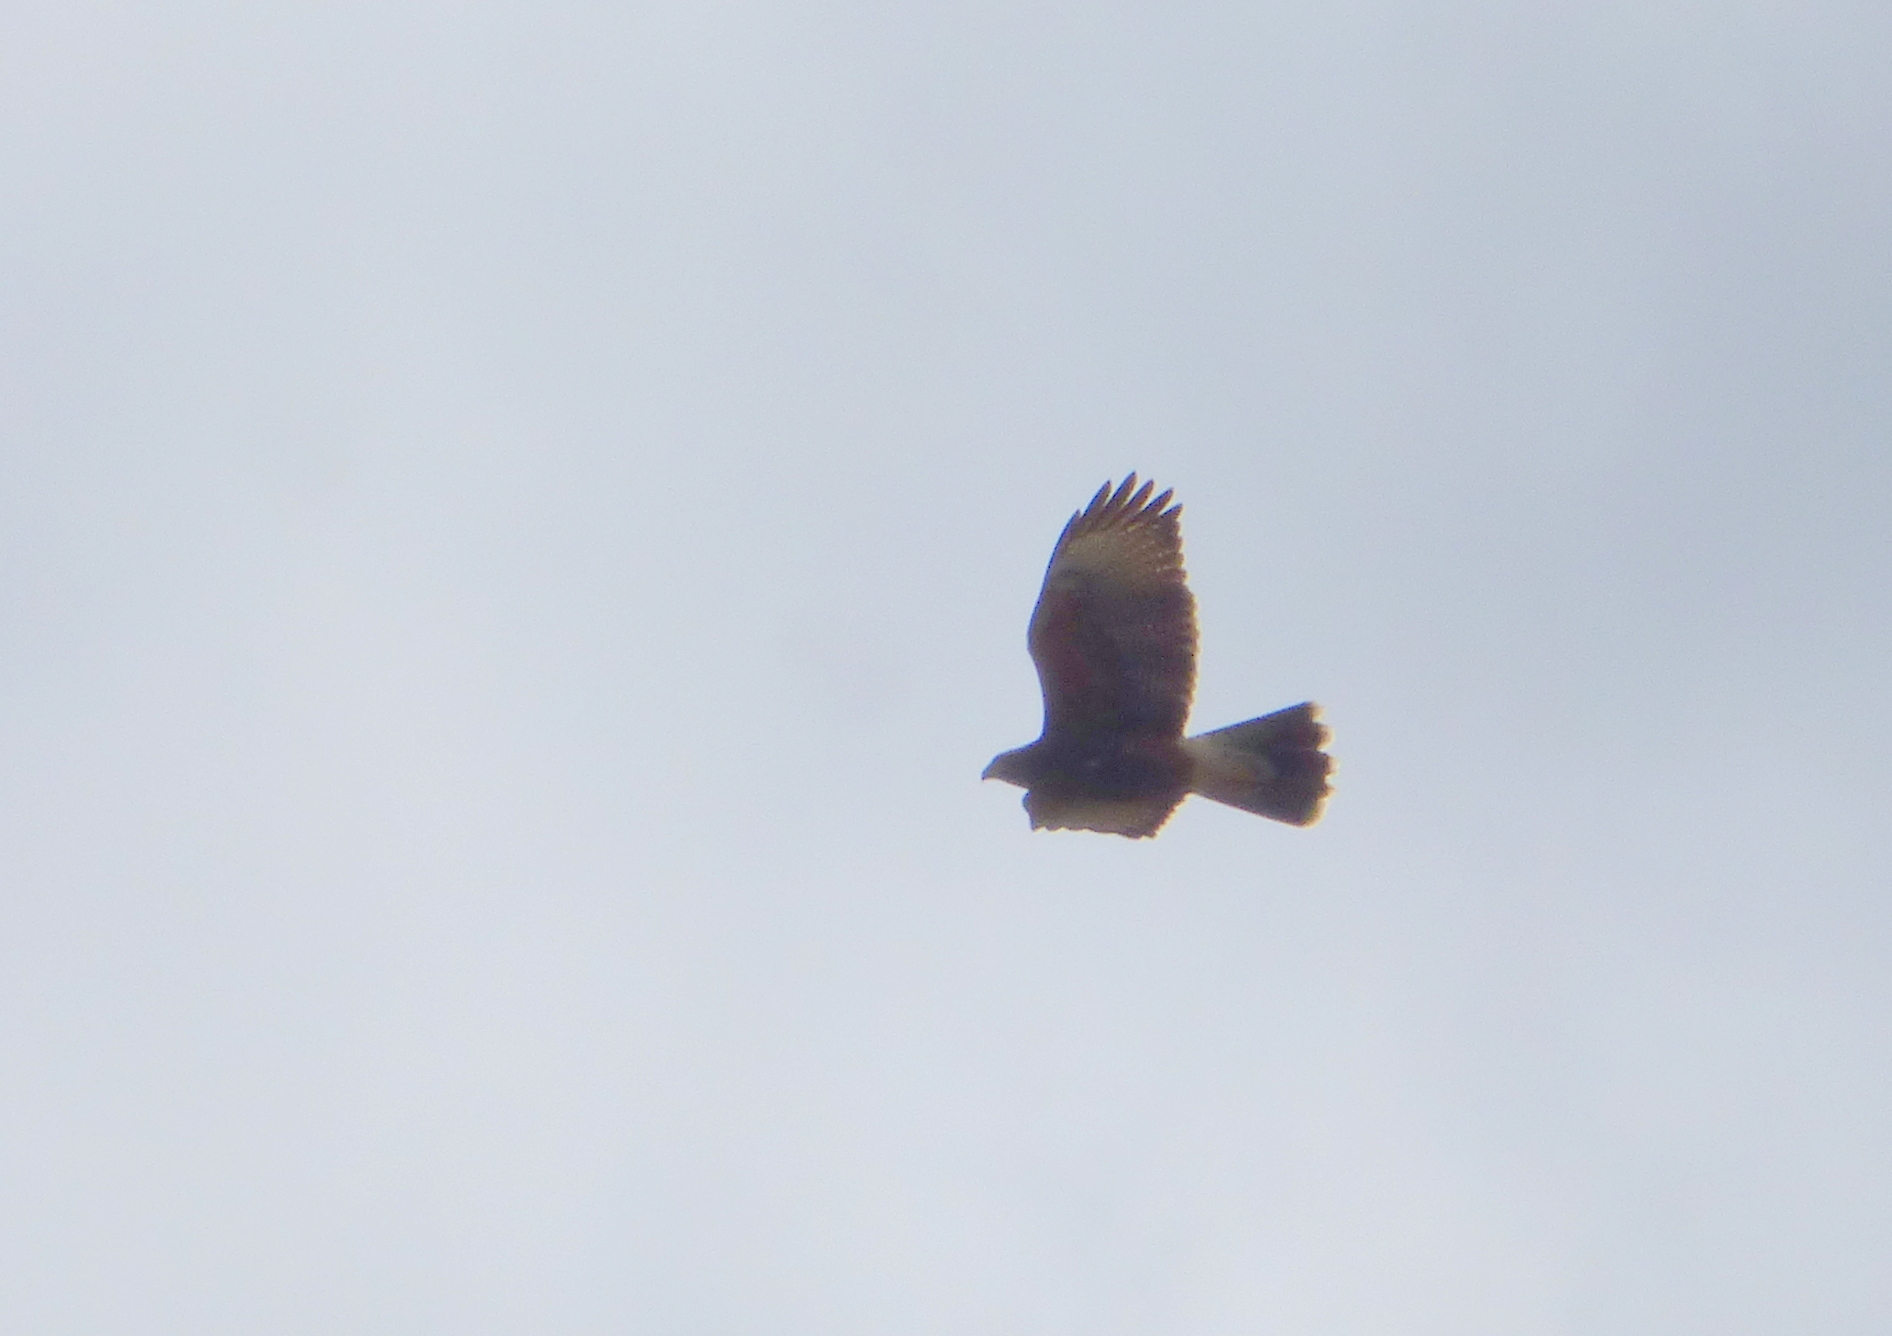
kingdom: Animalia
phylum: Chordata
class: Aves
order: Accipitriformes
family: Accipitridae
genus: Parabuteo
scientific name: Parabuteo unicinctus
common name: Harris's hawk
